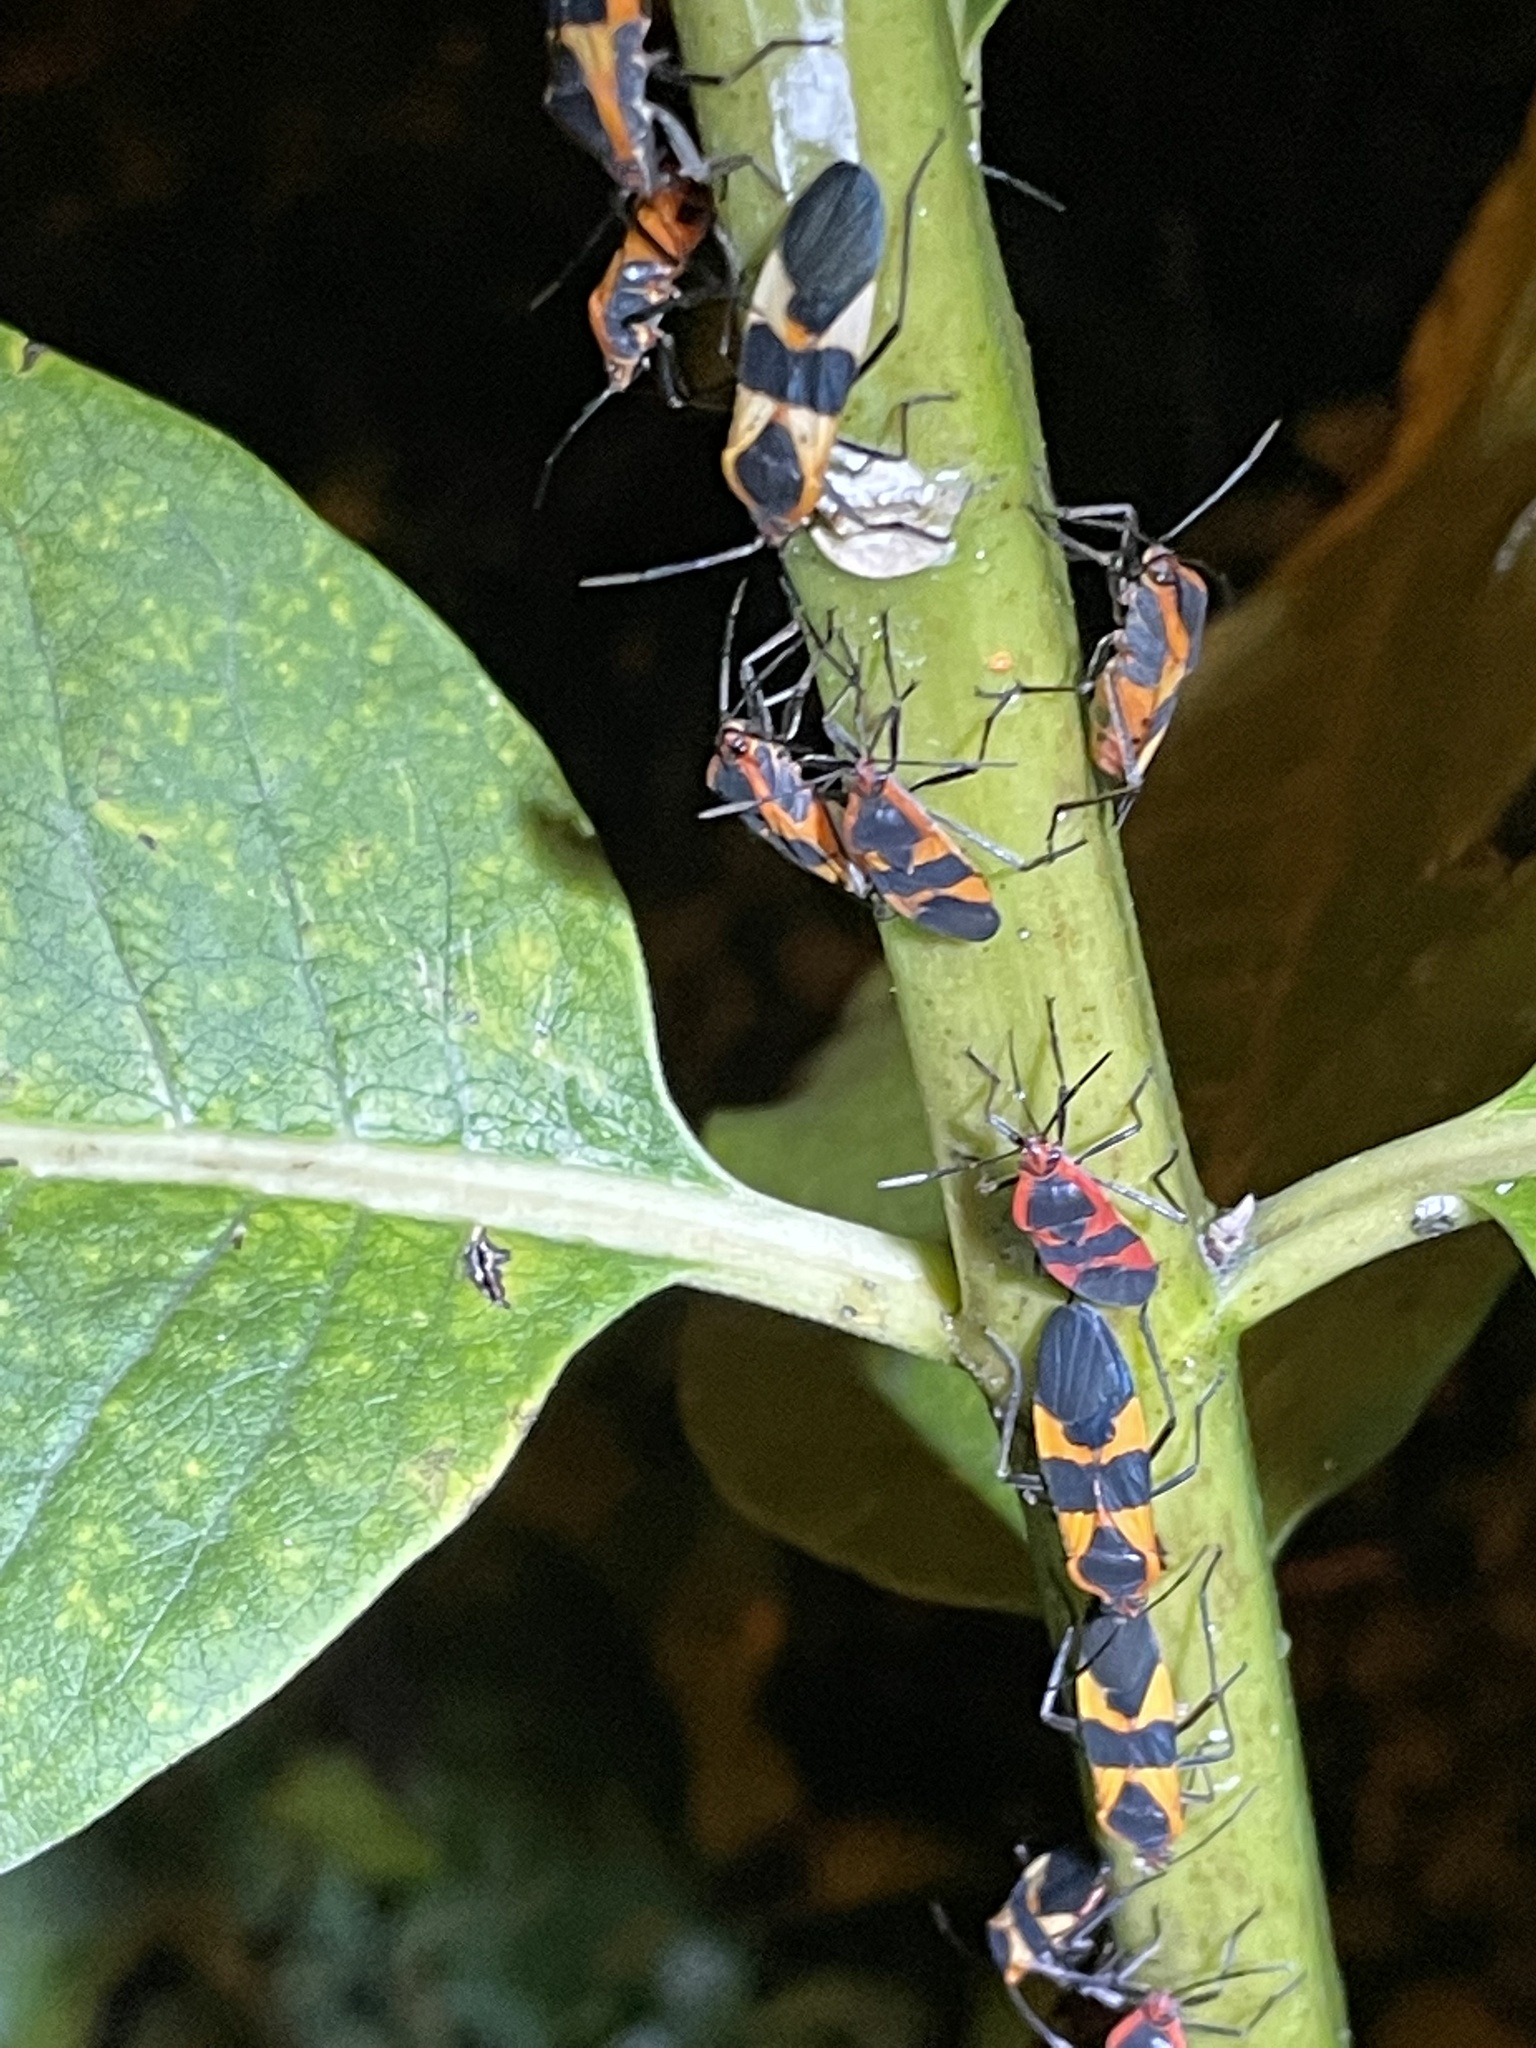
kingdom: Animalia
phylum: Arthropoda
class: Insecta
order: Hemiptera
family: Lygaeidae
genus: Oncopeltus
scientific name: Oncopeltus fasciatus
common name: Large milkweed bug
